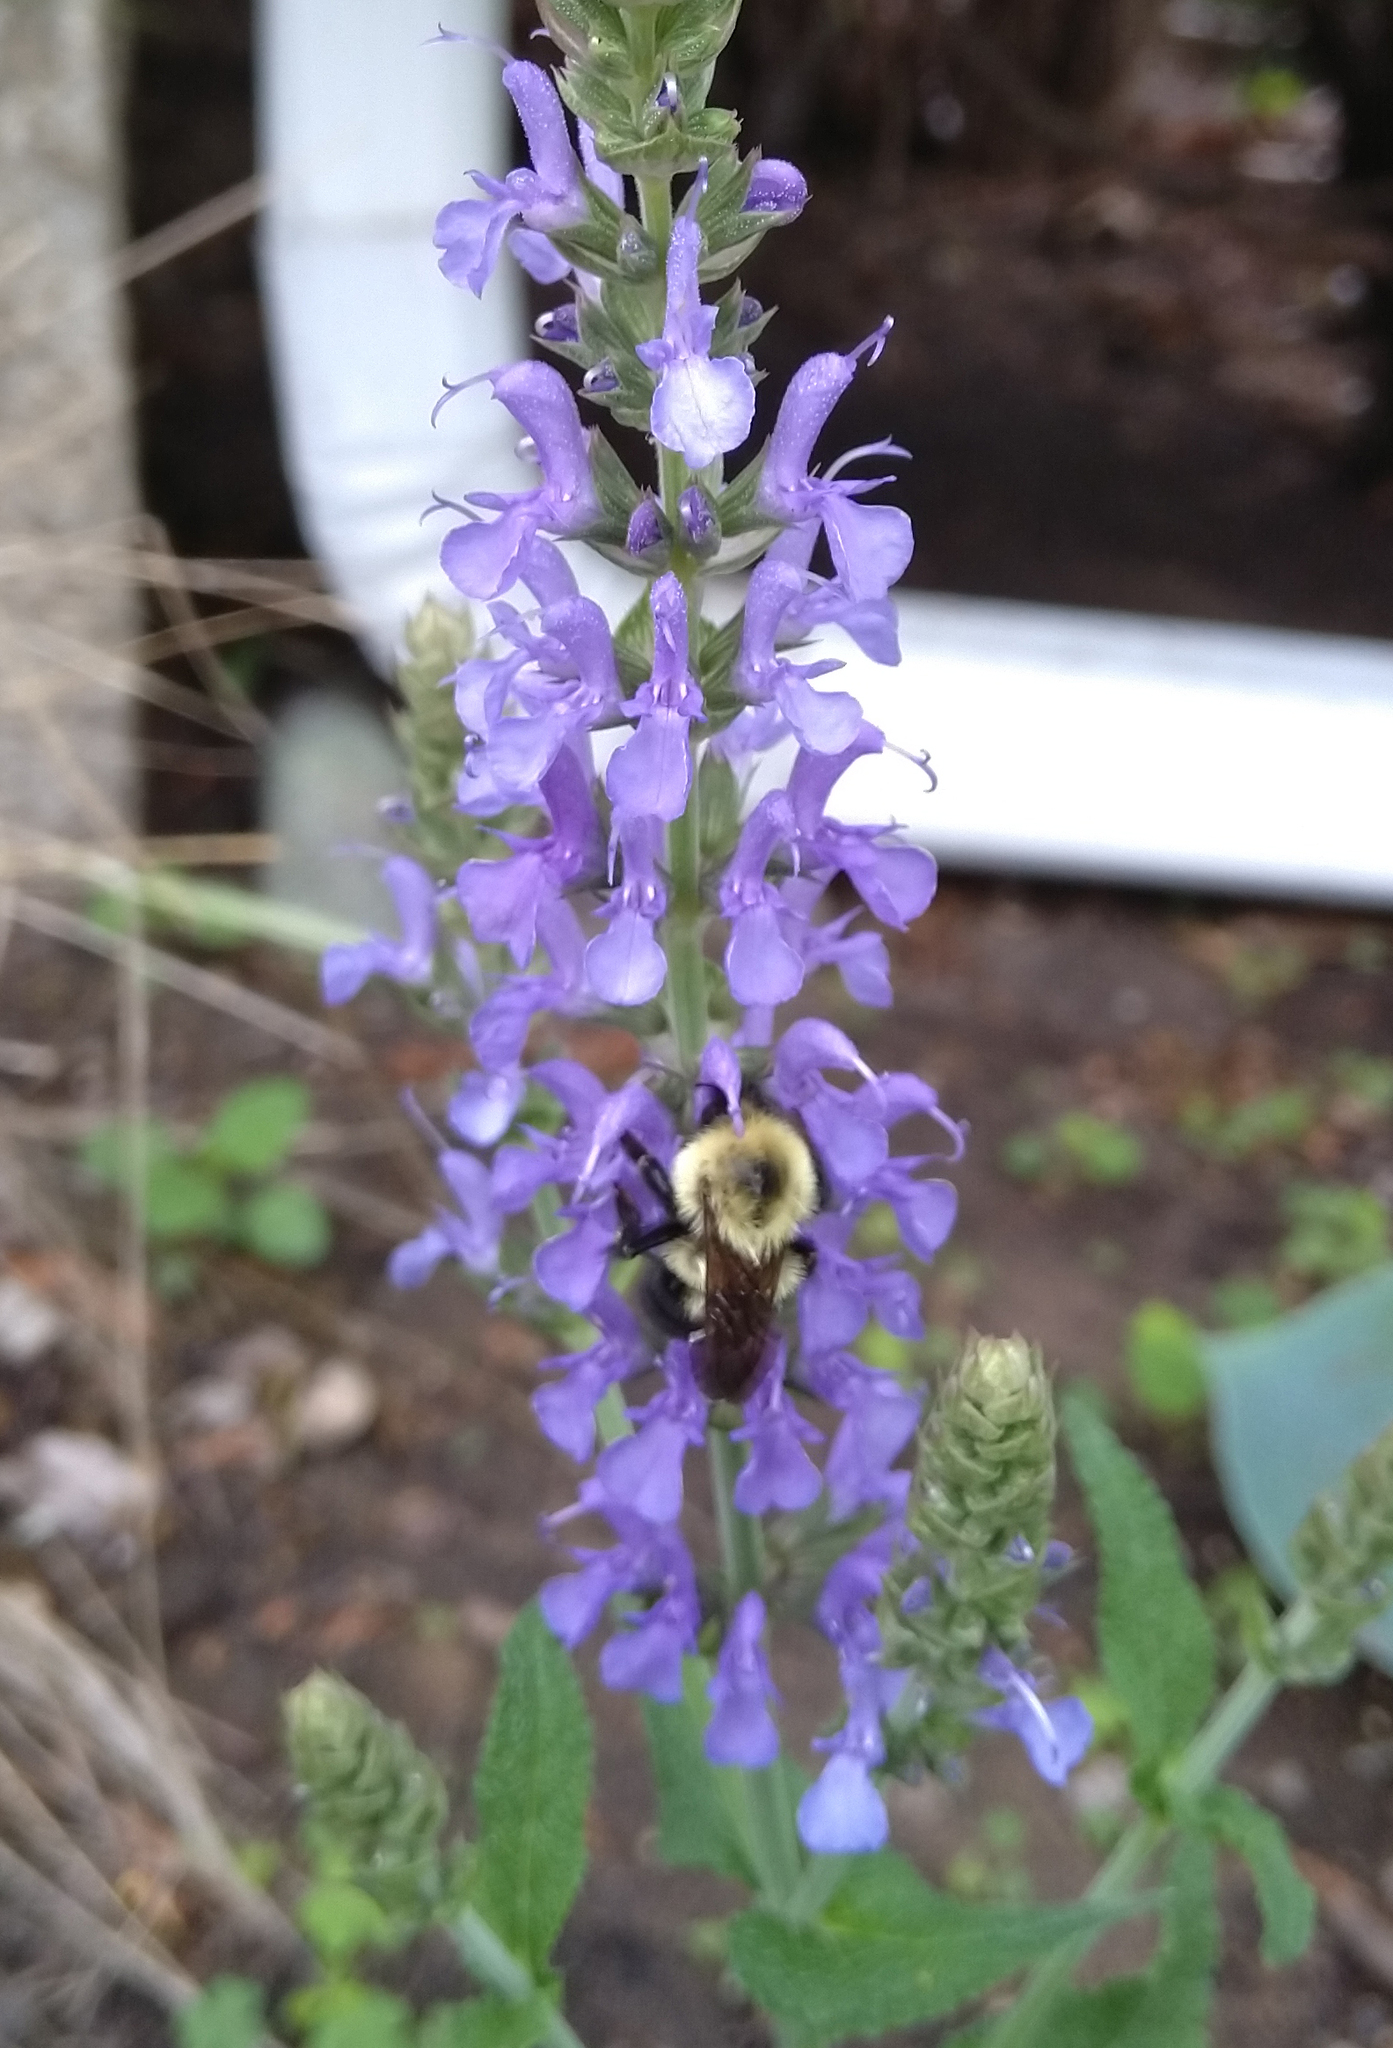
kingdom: Animalia
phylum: Arthropoda
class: Insecta
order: Hymenoptera
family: Apidae
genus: Bombus
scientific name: Bombus bimaculatus
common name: Two-spotted bumble bee
